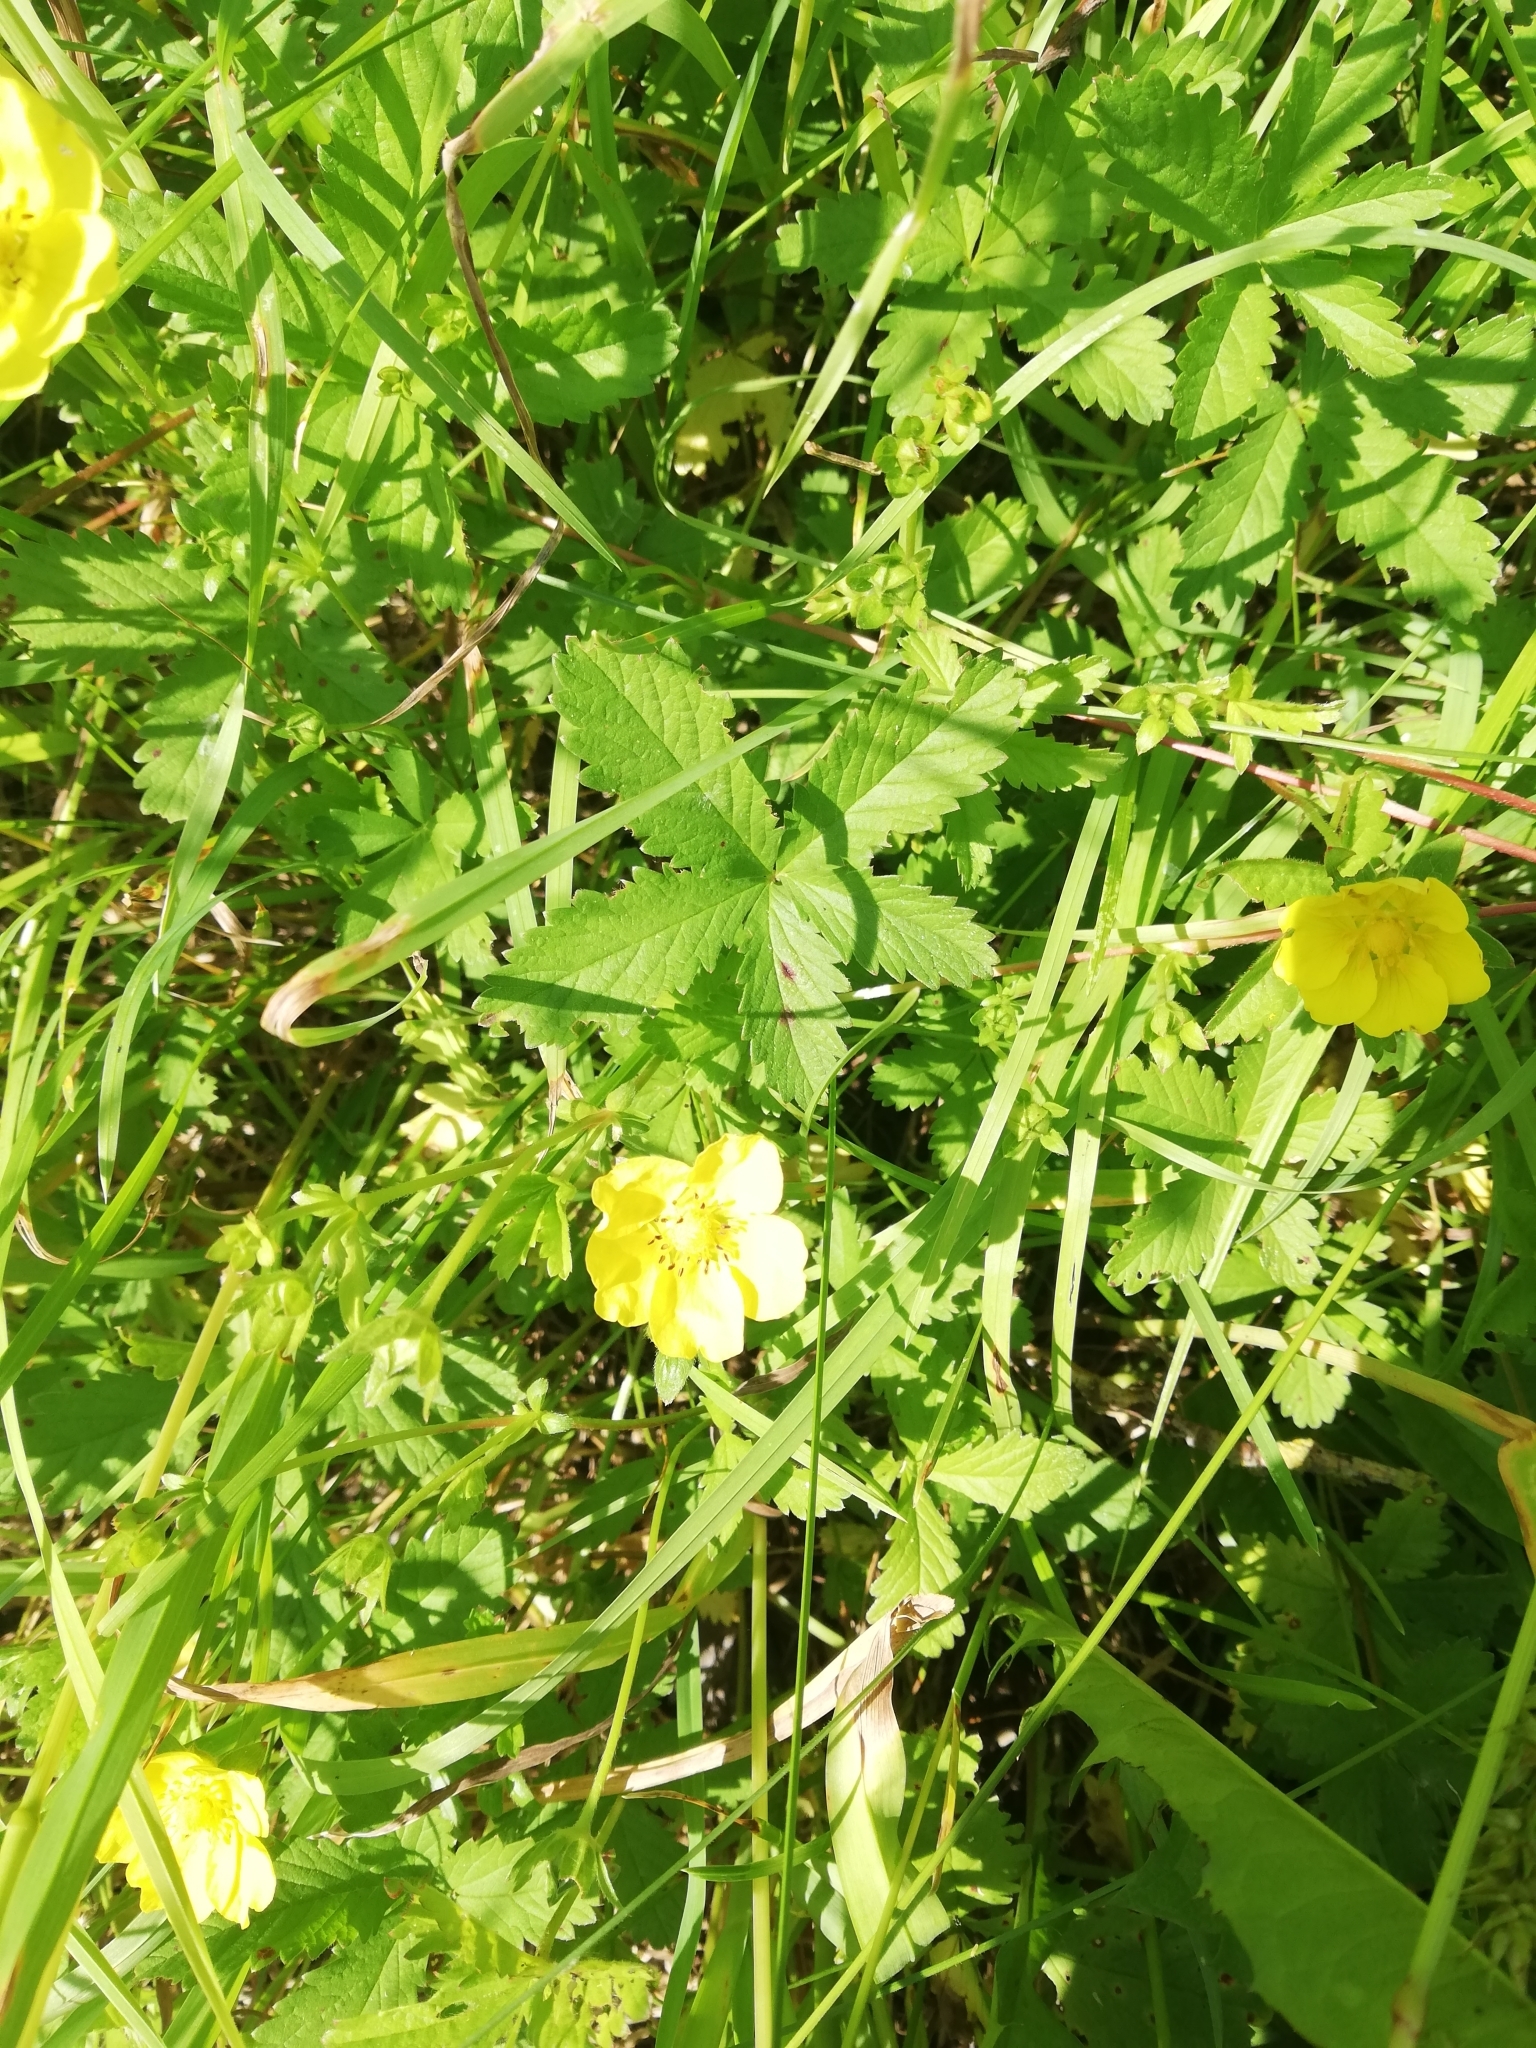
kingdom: Plantae
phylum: Tracheophyta
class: Magnoliopsida
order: Rosales
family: Rosaceae
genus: Potentilla
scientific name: Potentilla reptans
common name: Creeping cinquefoil
